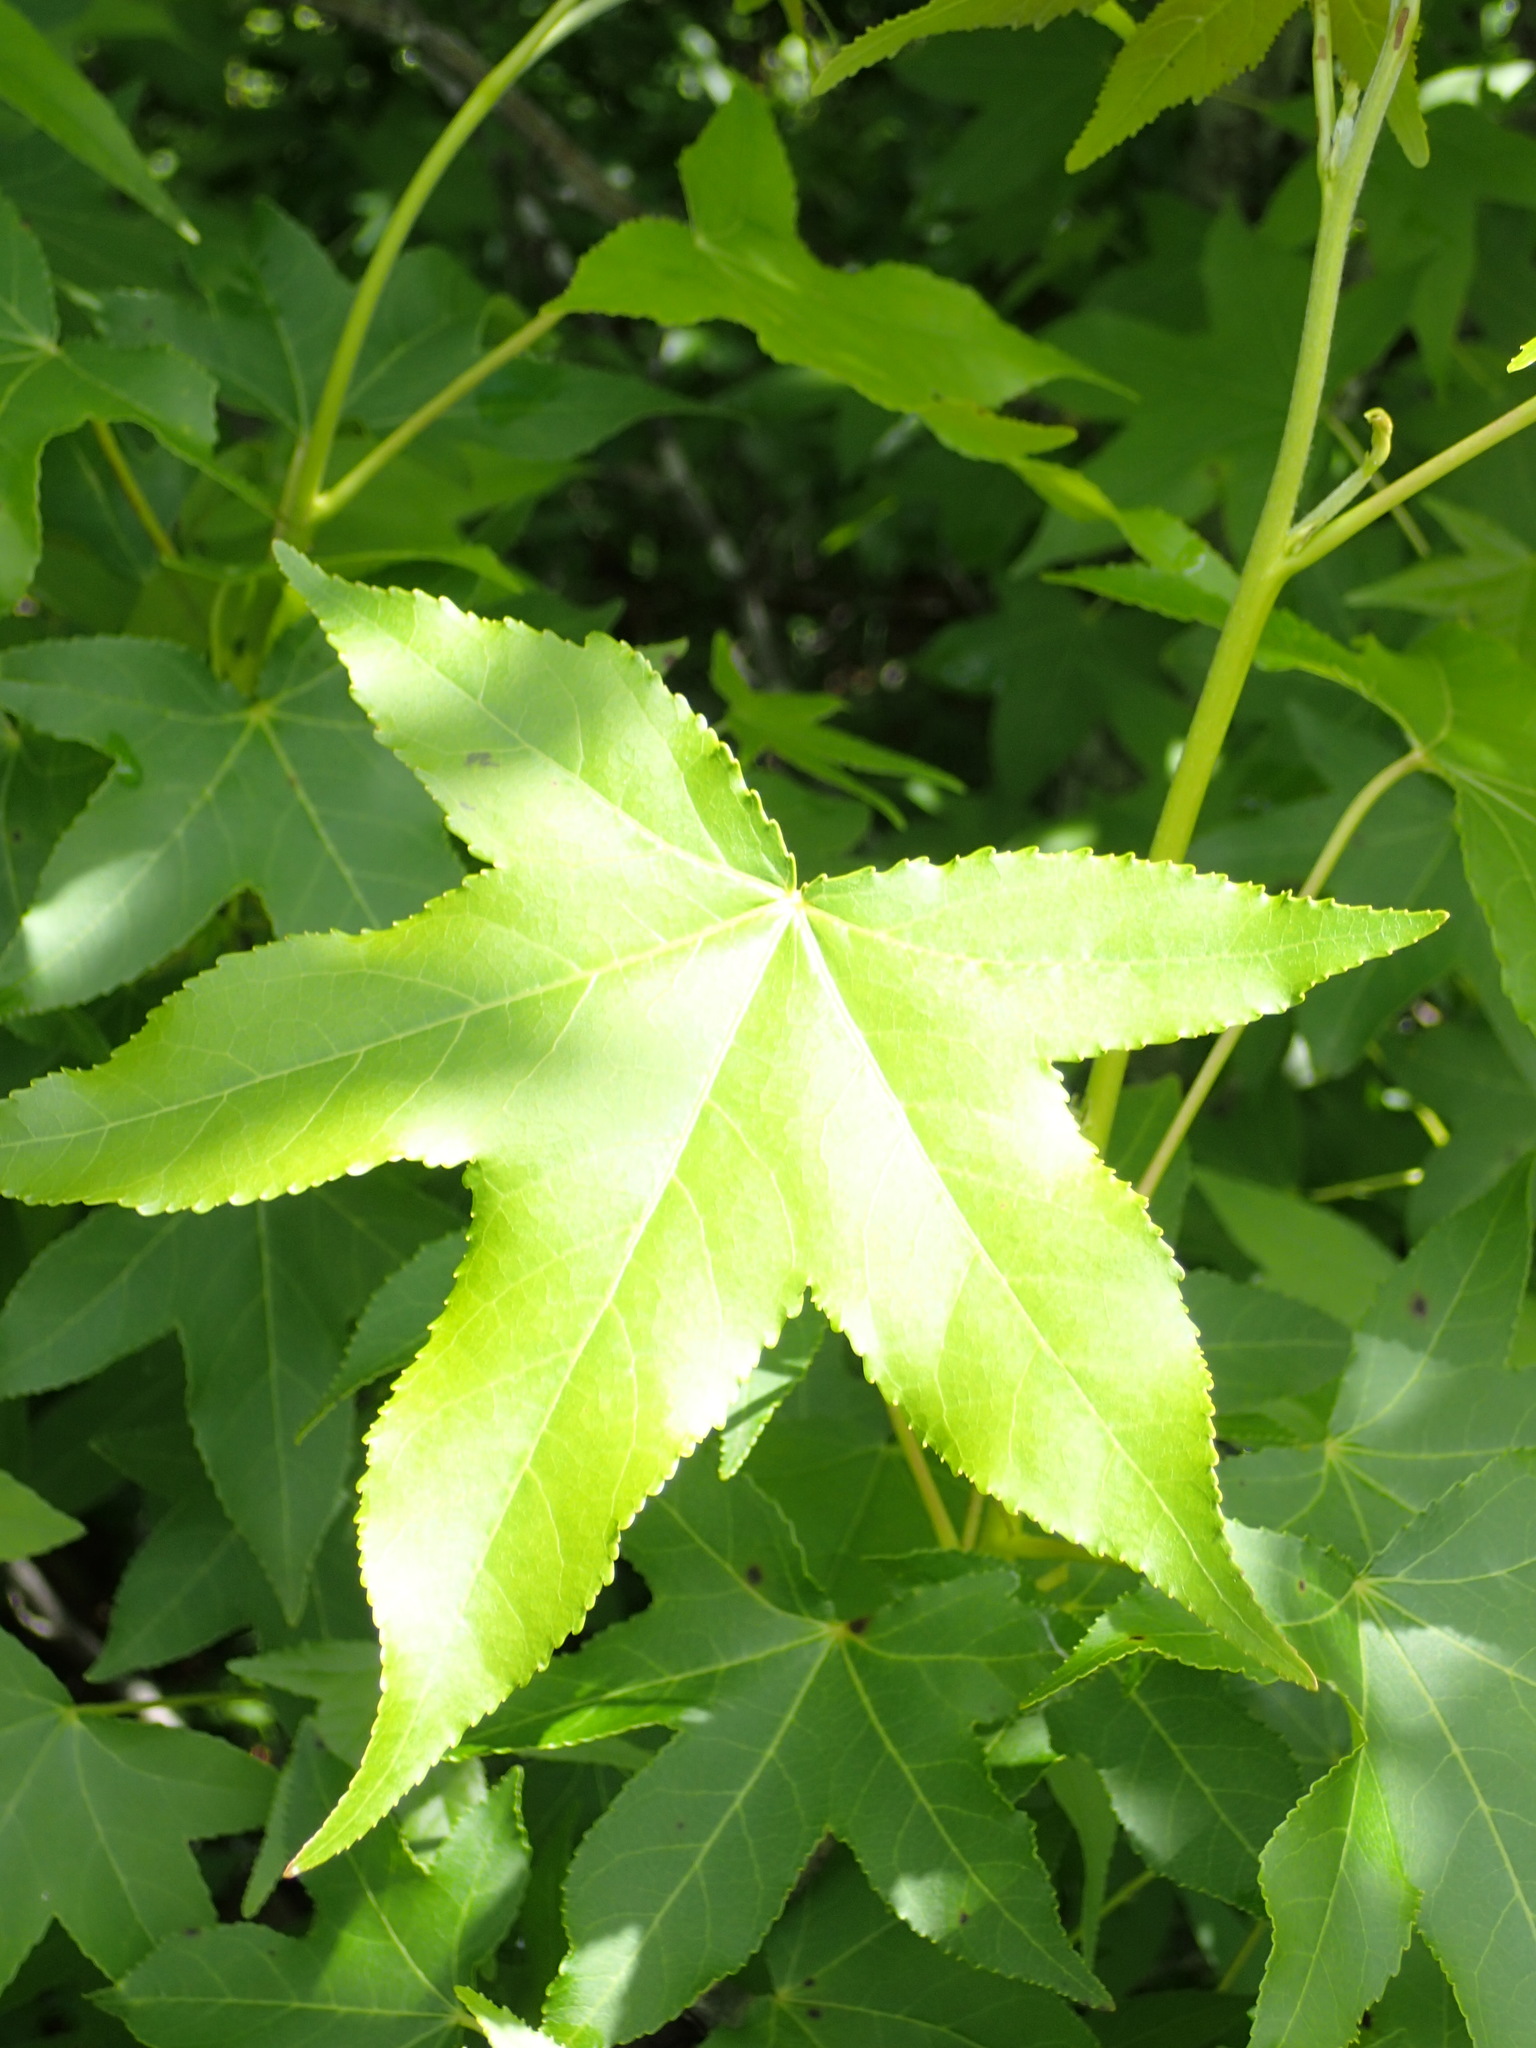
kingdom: Plantae
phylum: Tracheophyta
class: Magnoliopsida
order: Saxifragales
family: Altingiaceae
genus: Liquidambar
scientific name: Liquidambar styraciflua
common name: Sweet gum
